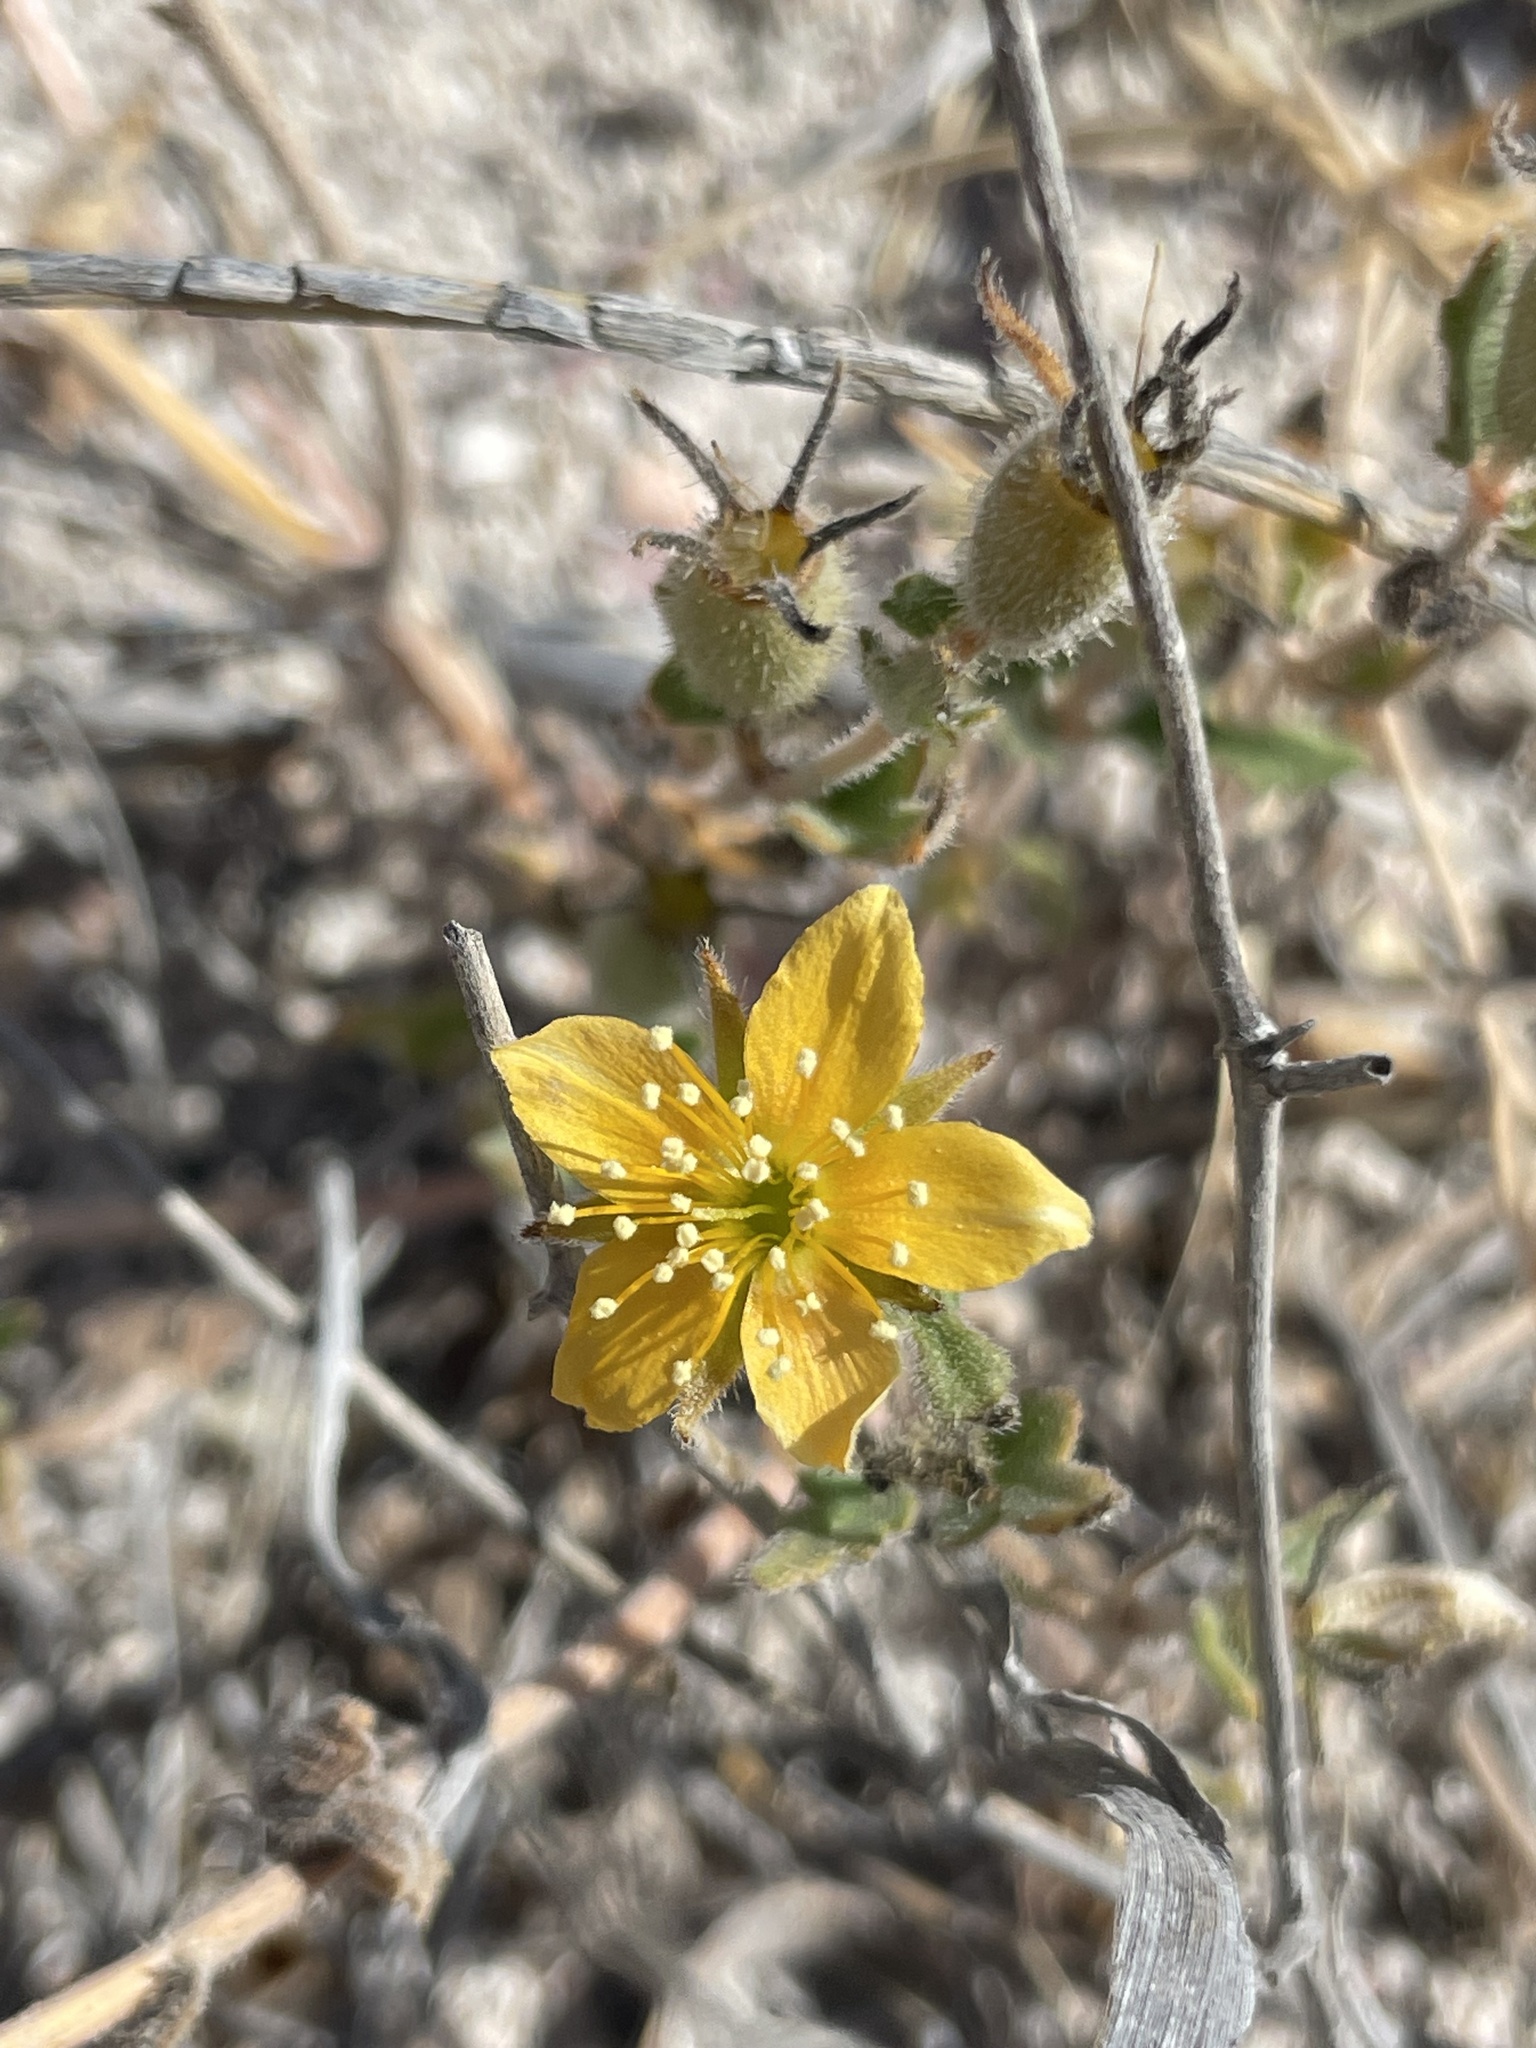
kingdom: Plantae
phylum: Tracheophyta
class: Magnoliopsida
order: Cornales
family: Loasaceae
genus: Mentzelia
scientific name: Mentzelia adhaerens
